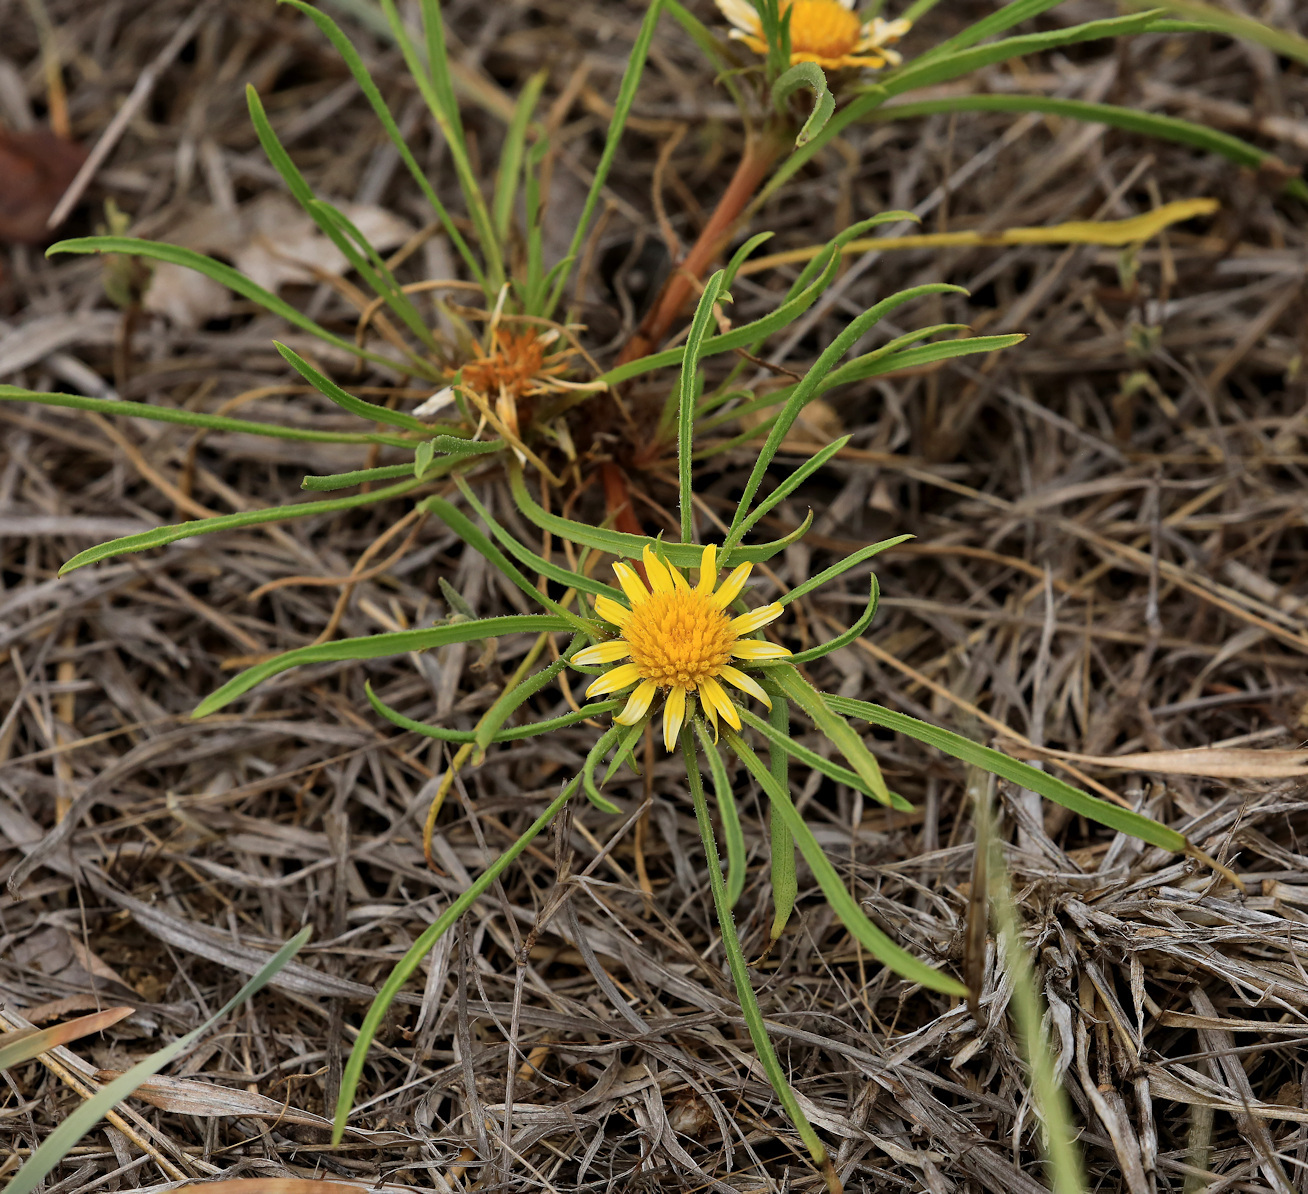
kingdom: Plantae
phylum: Tracheophyta
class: Magnoliopsida
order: Asterales
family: Asteraceae
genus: Geigeria
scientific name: Geigeria ornativa
